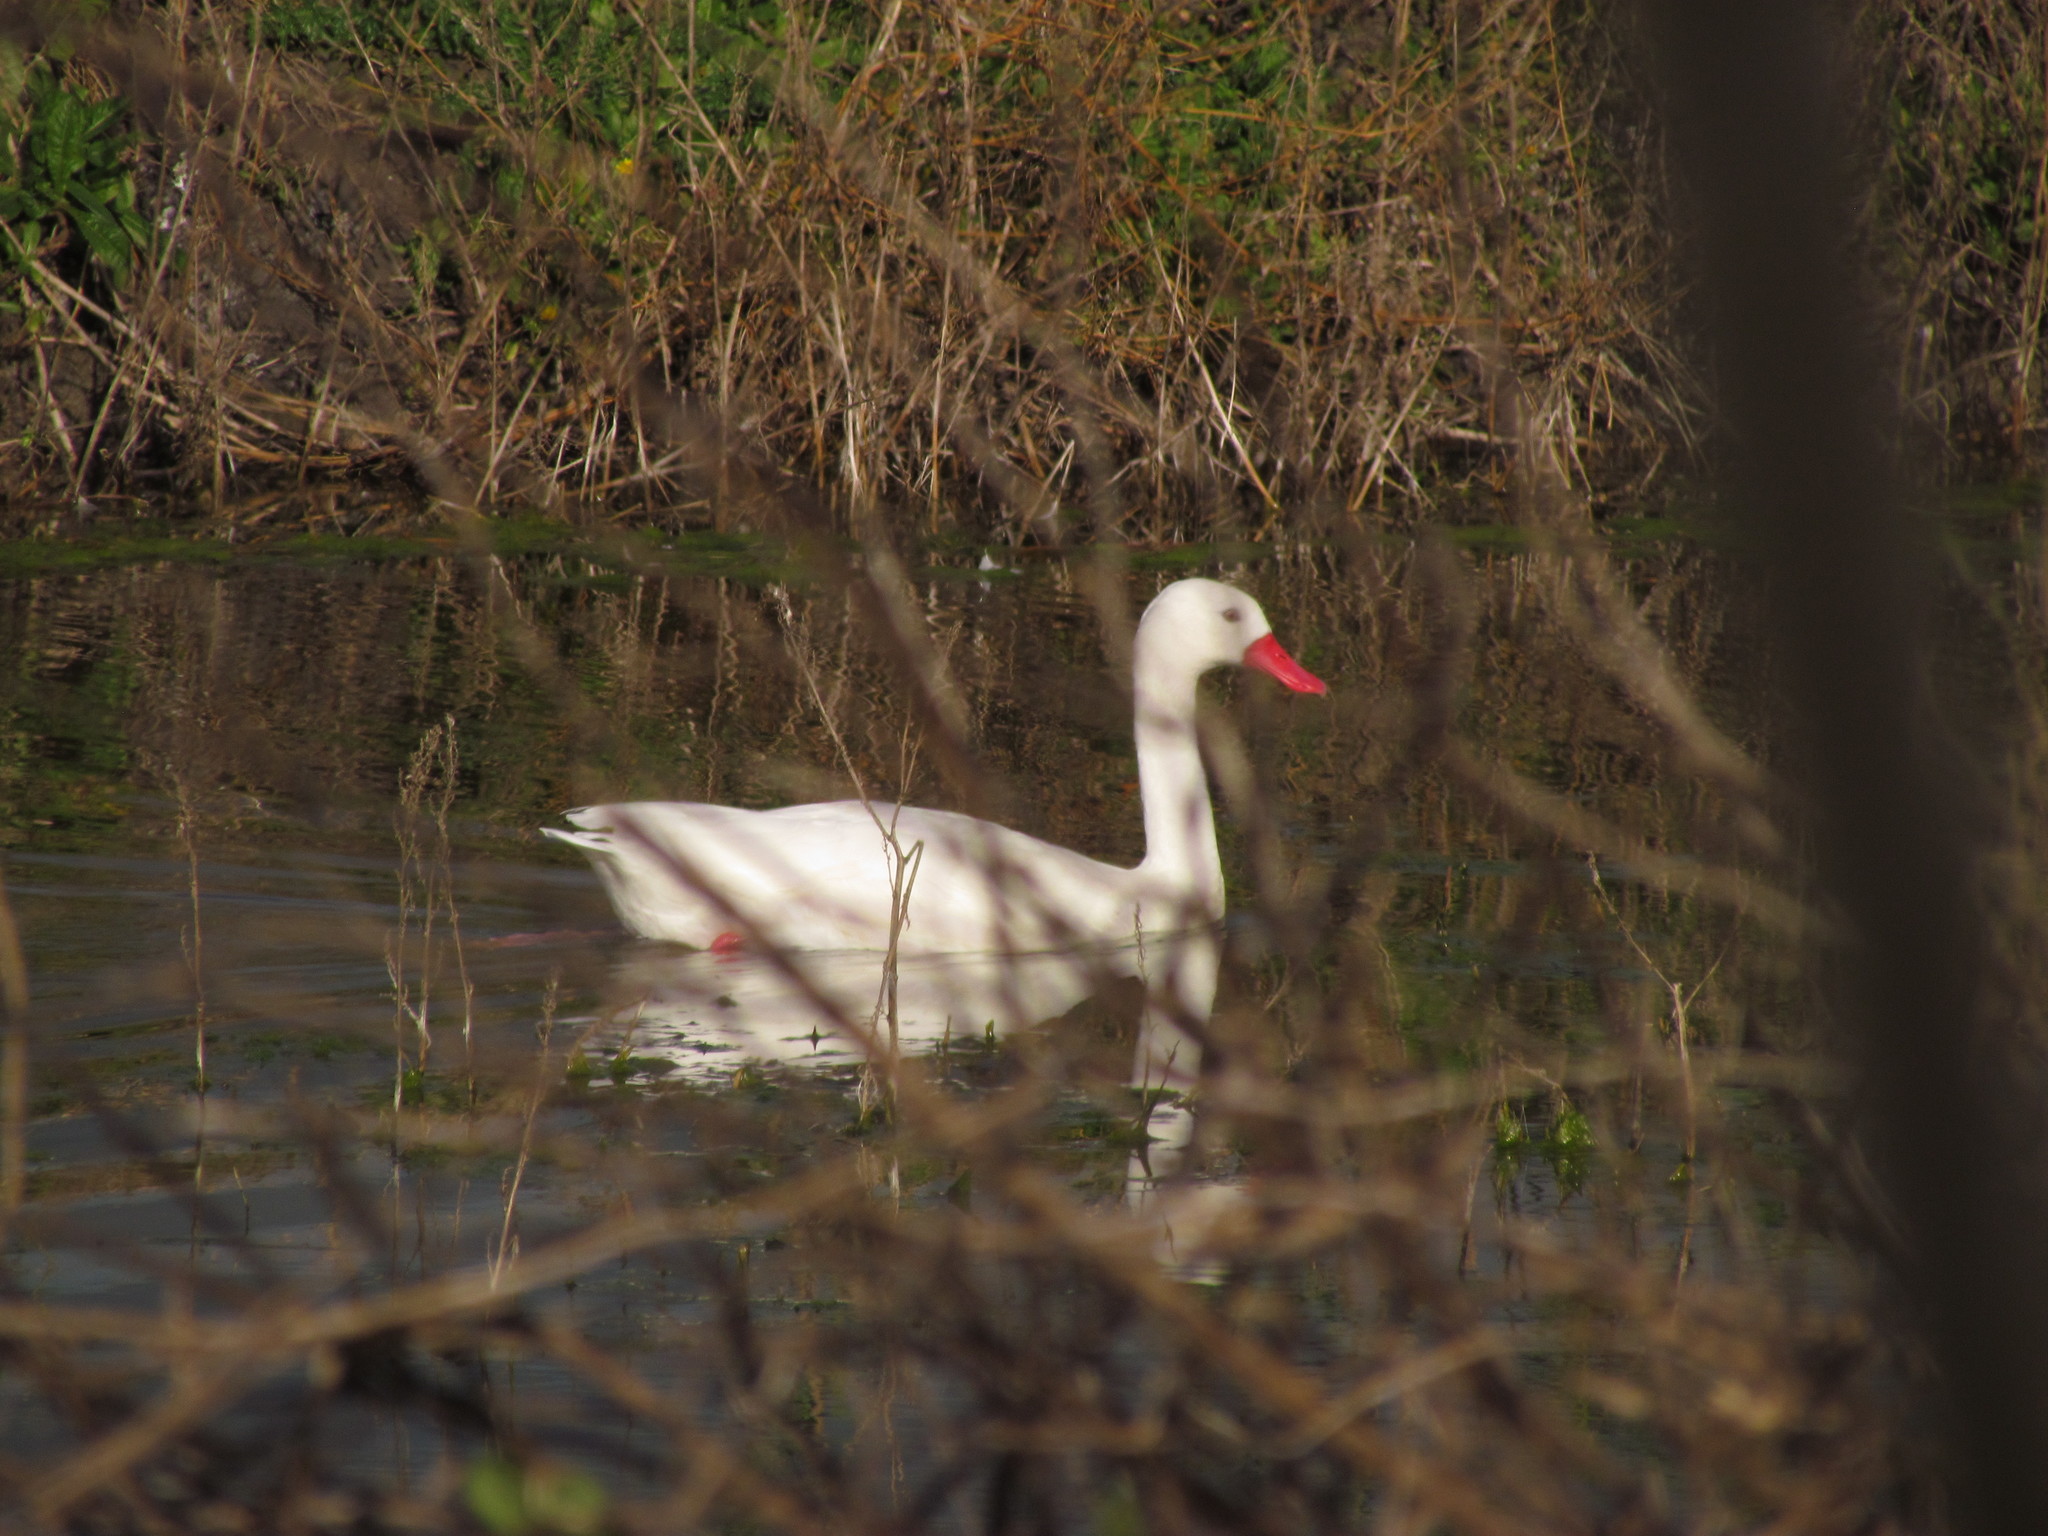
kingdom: Animalia
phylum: Chordata
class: Aves
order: Anseriformes
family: Anatidae
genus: Coscoroba
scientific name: Coscoroba coscoroba
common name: Coscoroba swan
